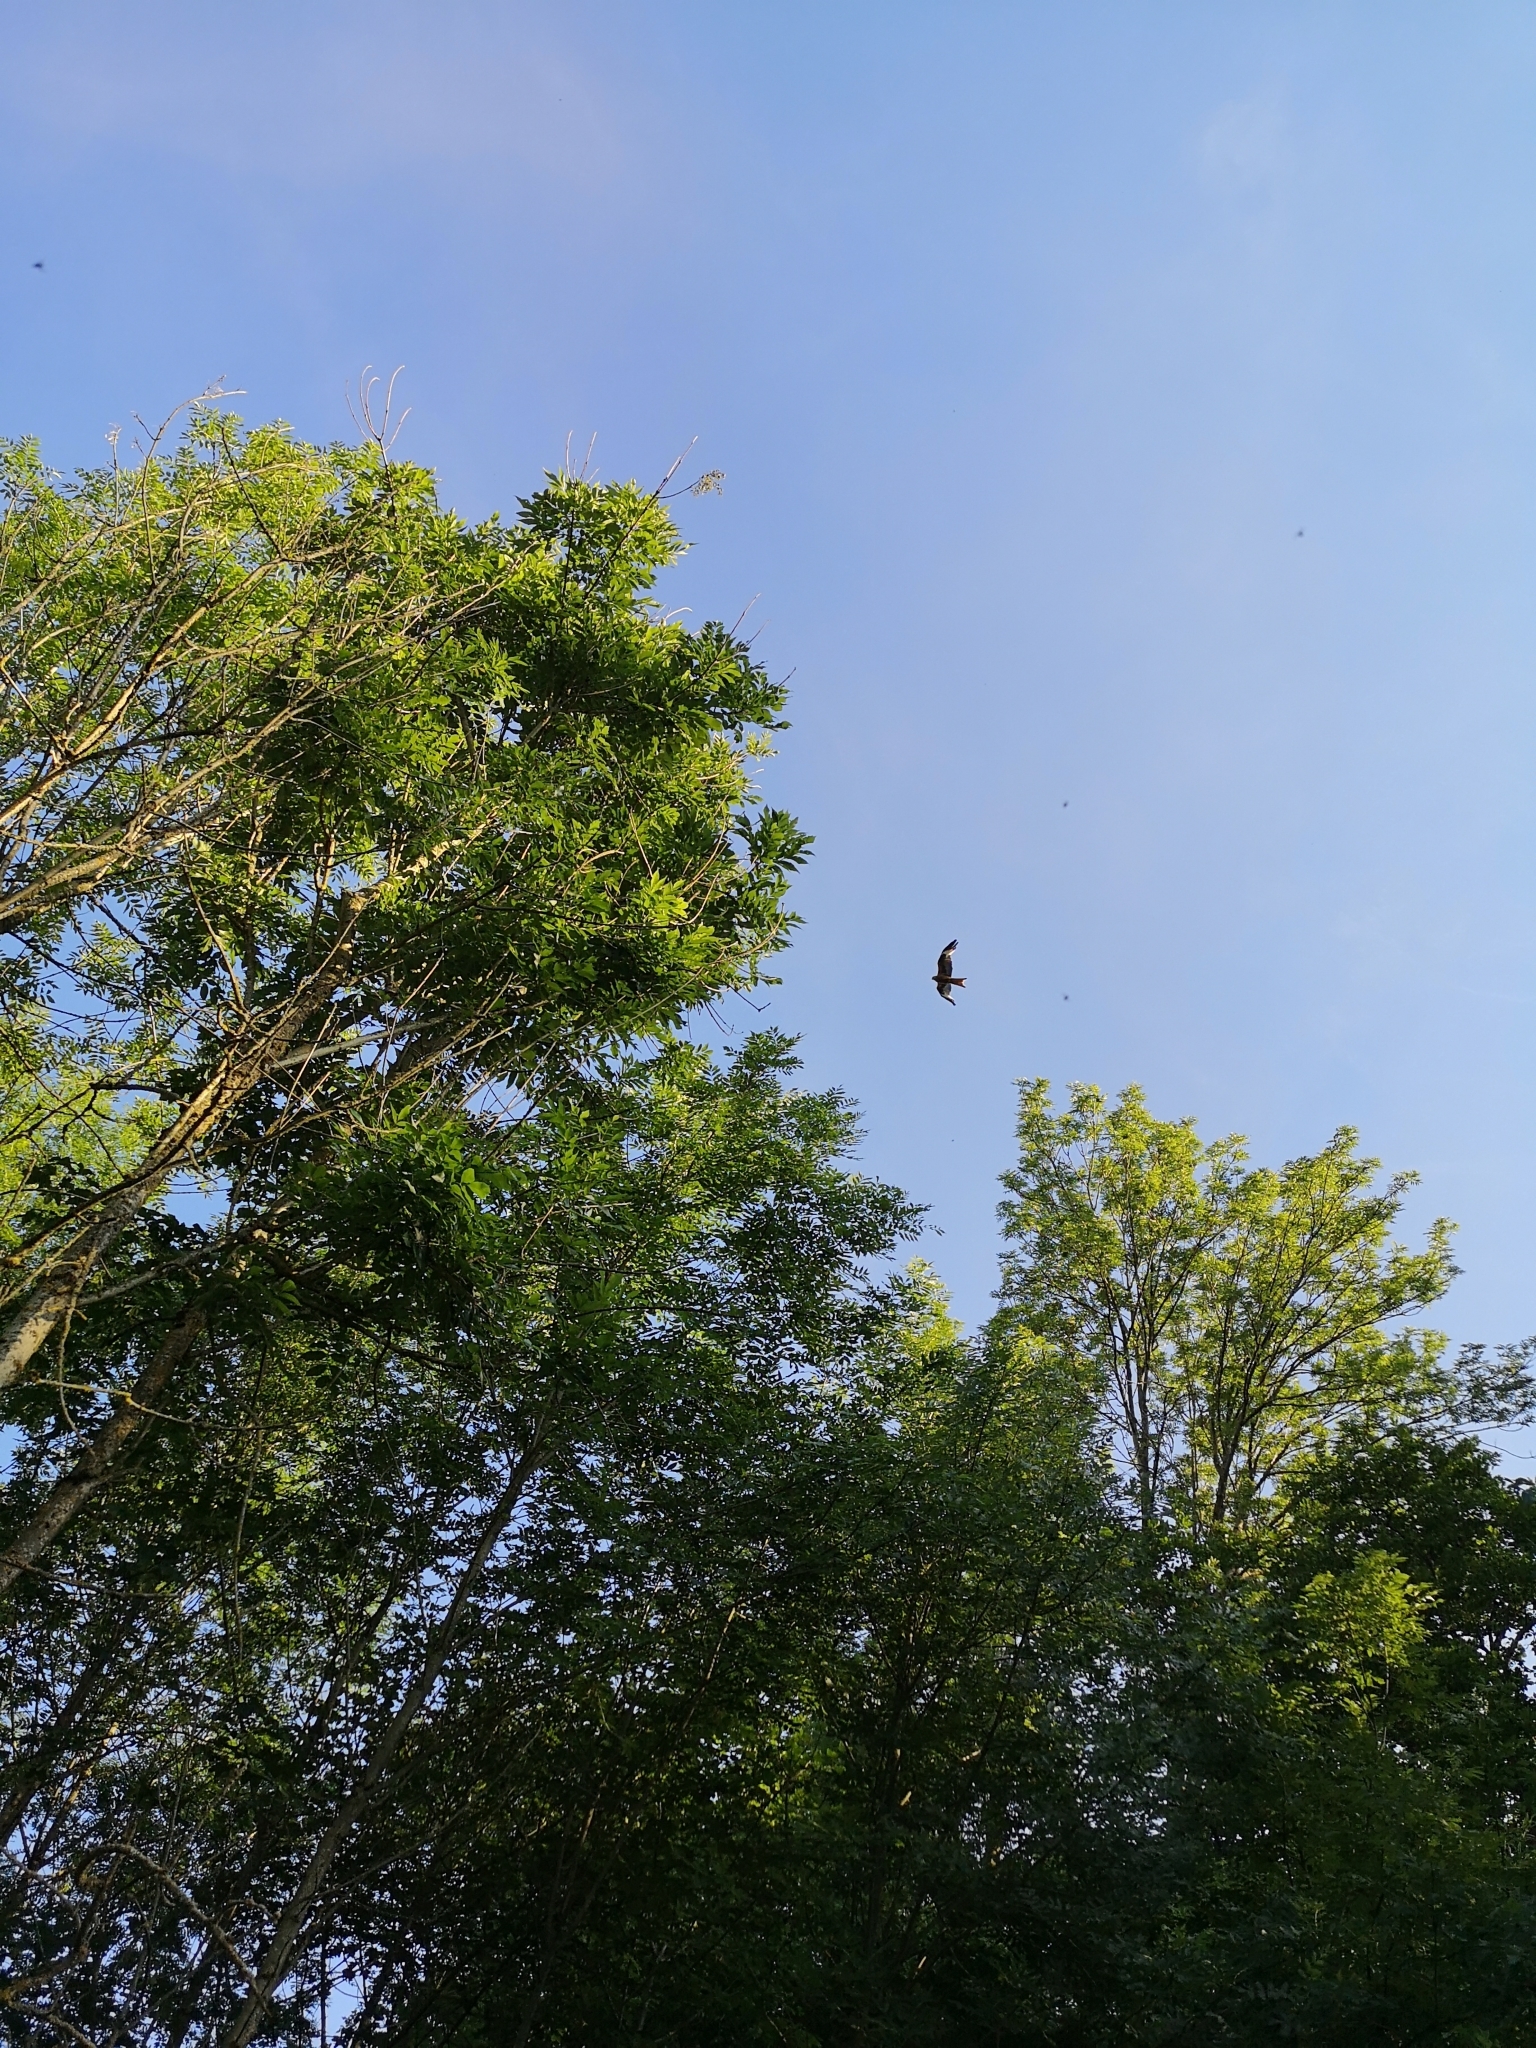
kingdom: Animalia
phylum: Chordata
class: Aves
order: Accipitriformes
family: Accipitridae
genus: Milvus
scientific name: Milvus milvus
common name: Red kite
